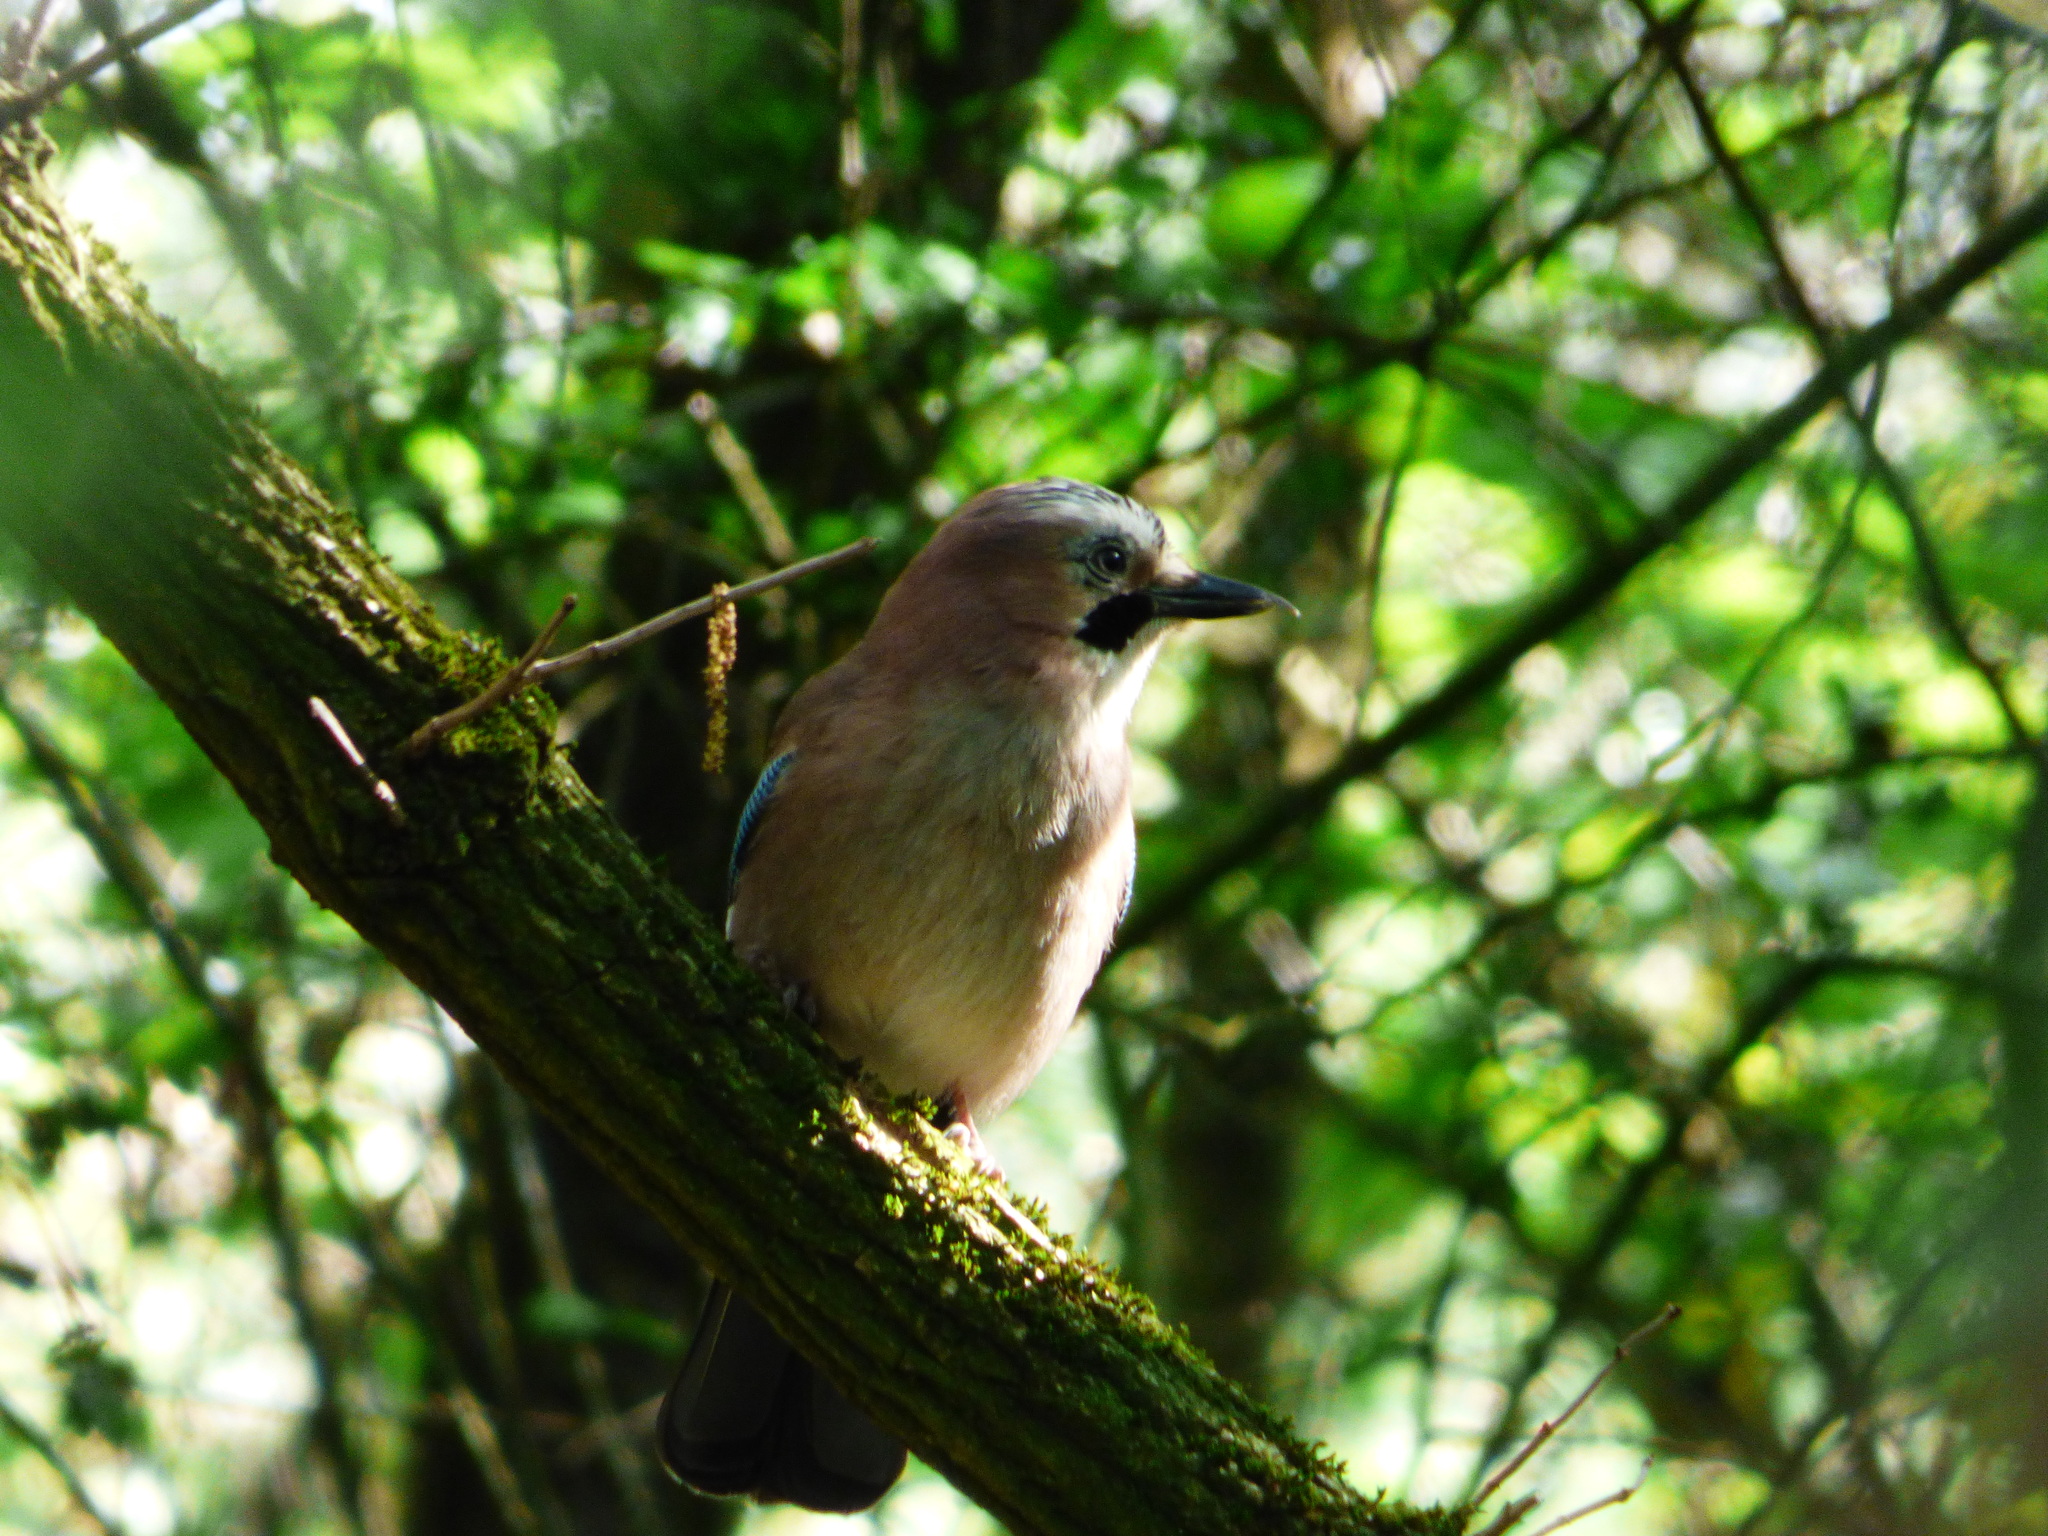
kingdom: Animalia
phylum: Chordata
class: Aves
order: Passeriformes
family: Corvidae
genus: Garrulus
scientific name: Garrulus glandarius
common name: Eurasian jay
